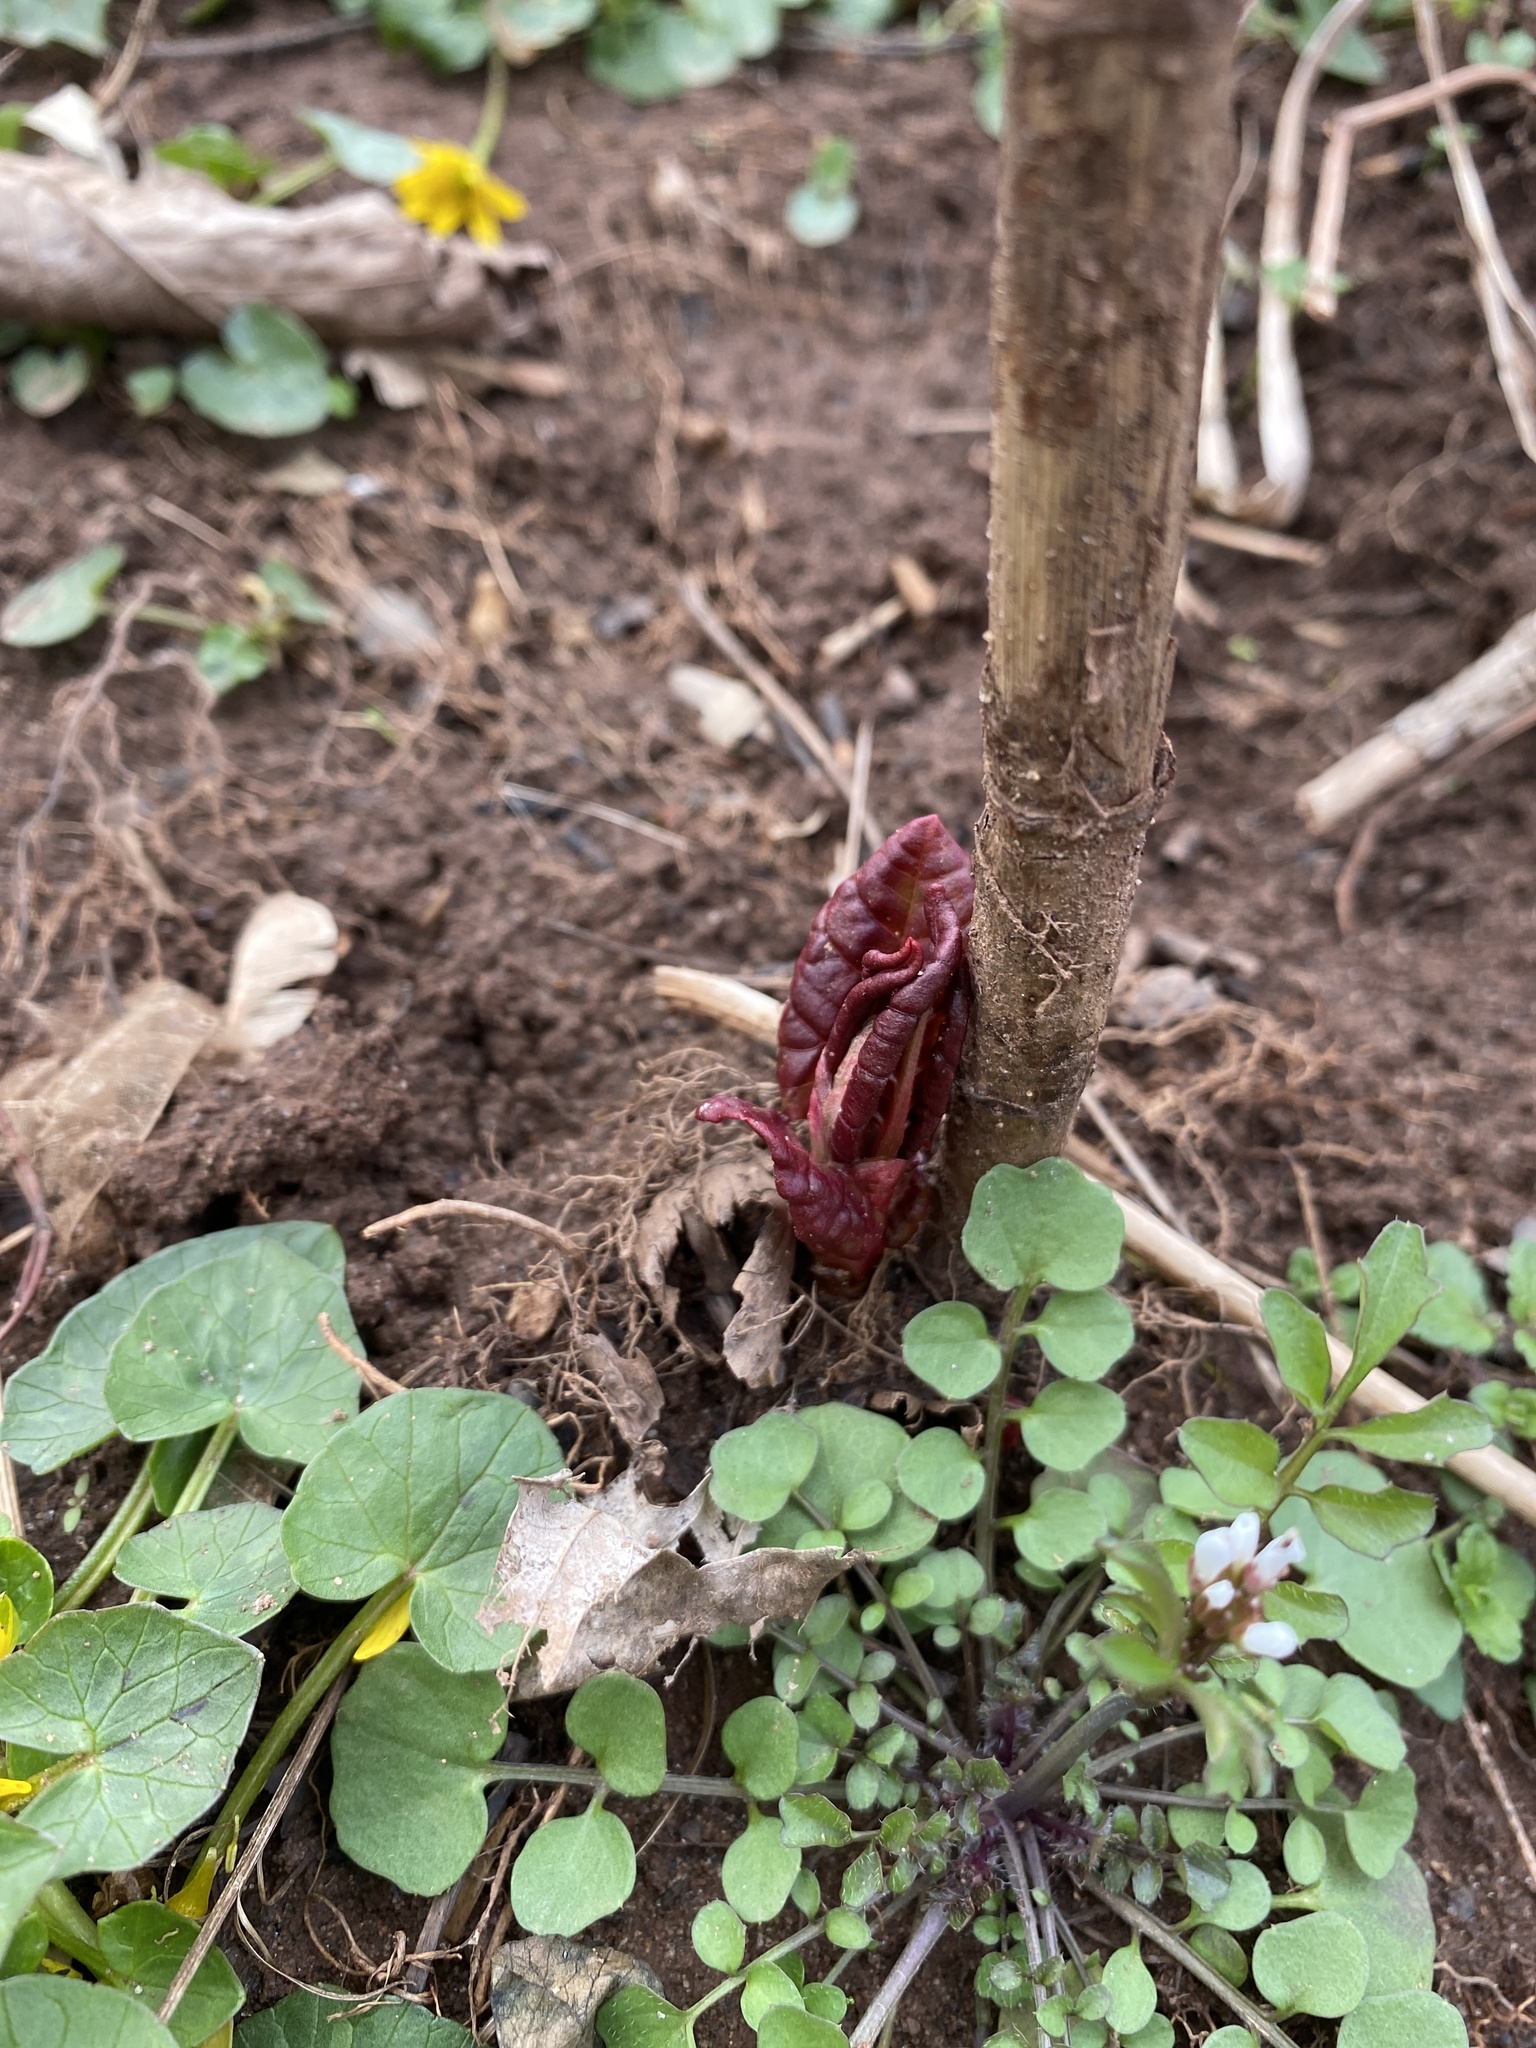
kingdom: Plantae
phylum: Tracheophyta
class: Magnoliopsida
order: Caryophyllales
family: Polygonaceae
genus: Reynoutria
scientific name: Reynoutria japonica
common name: Japanese knotweed
